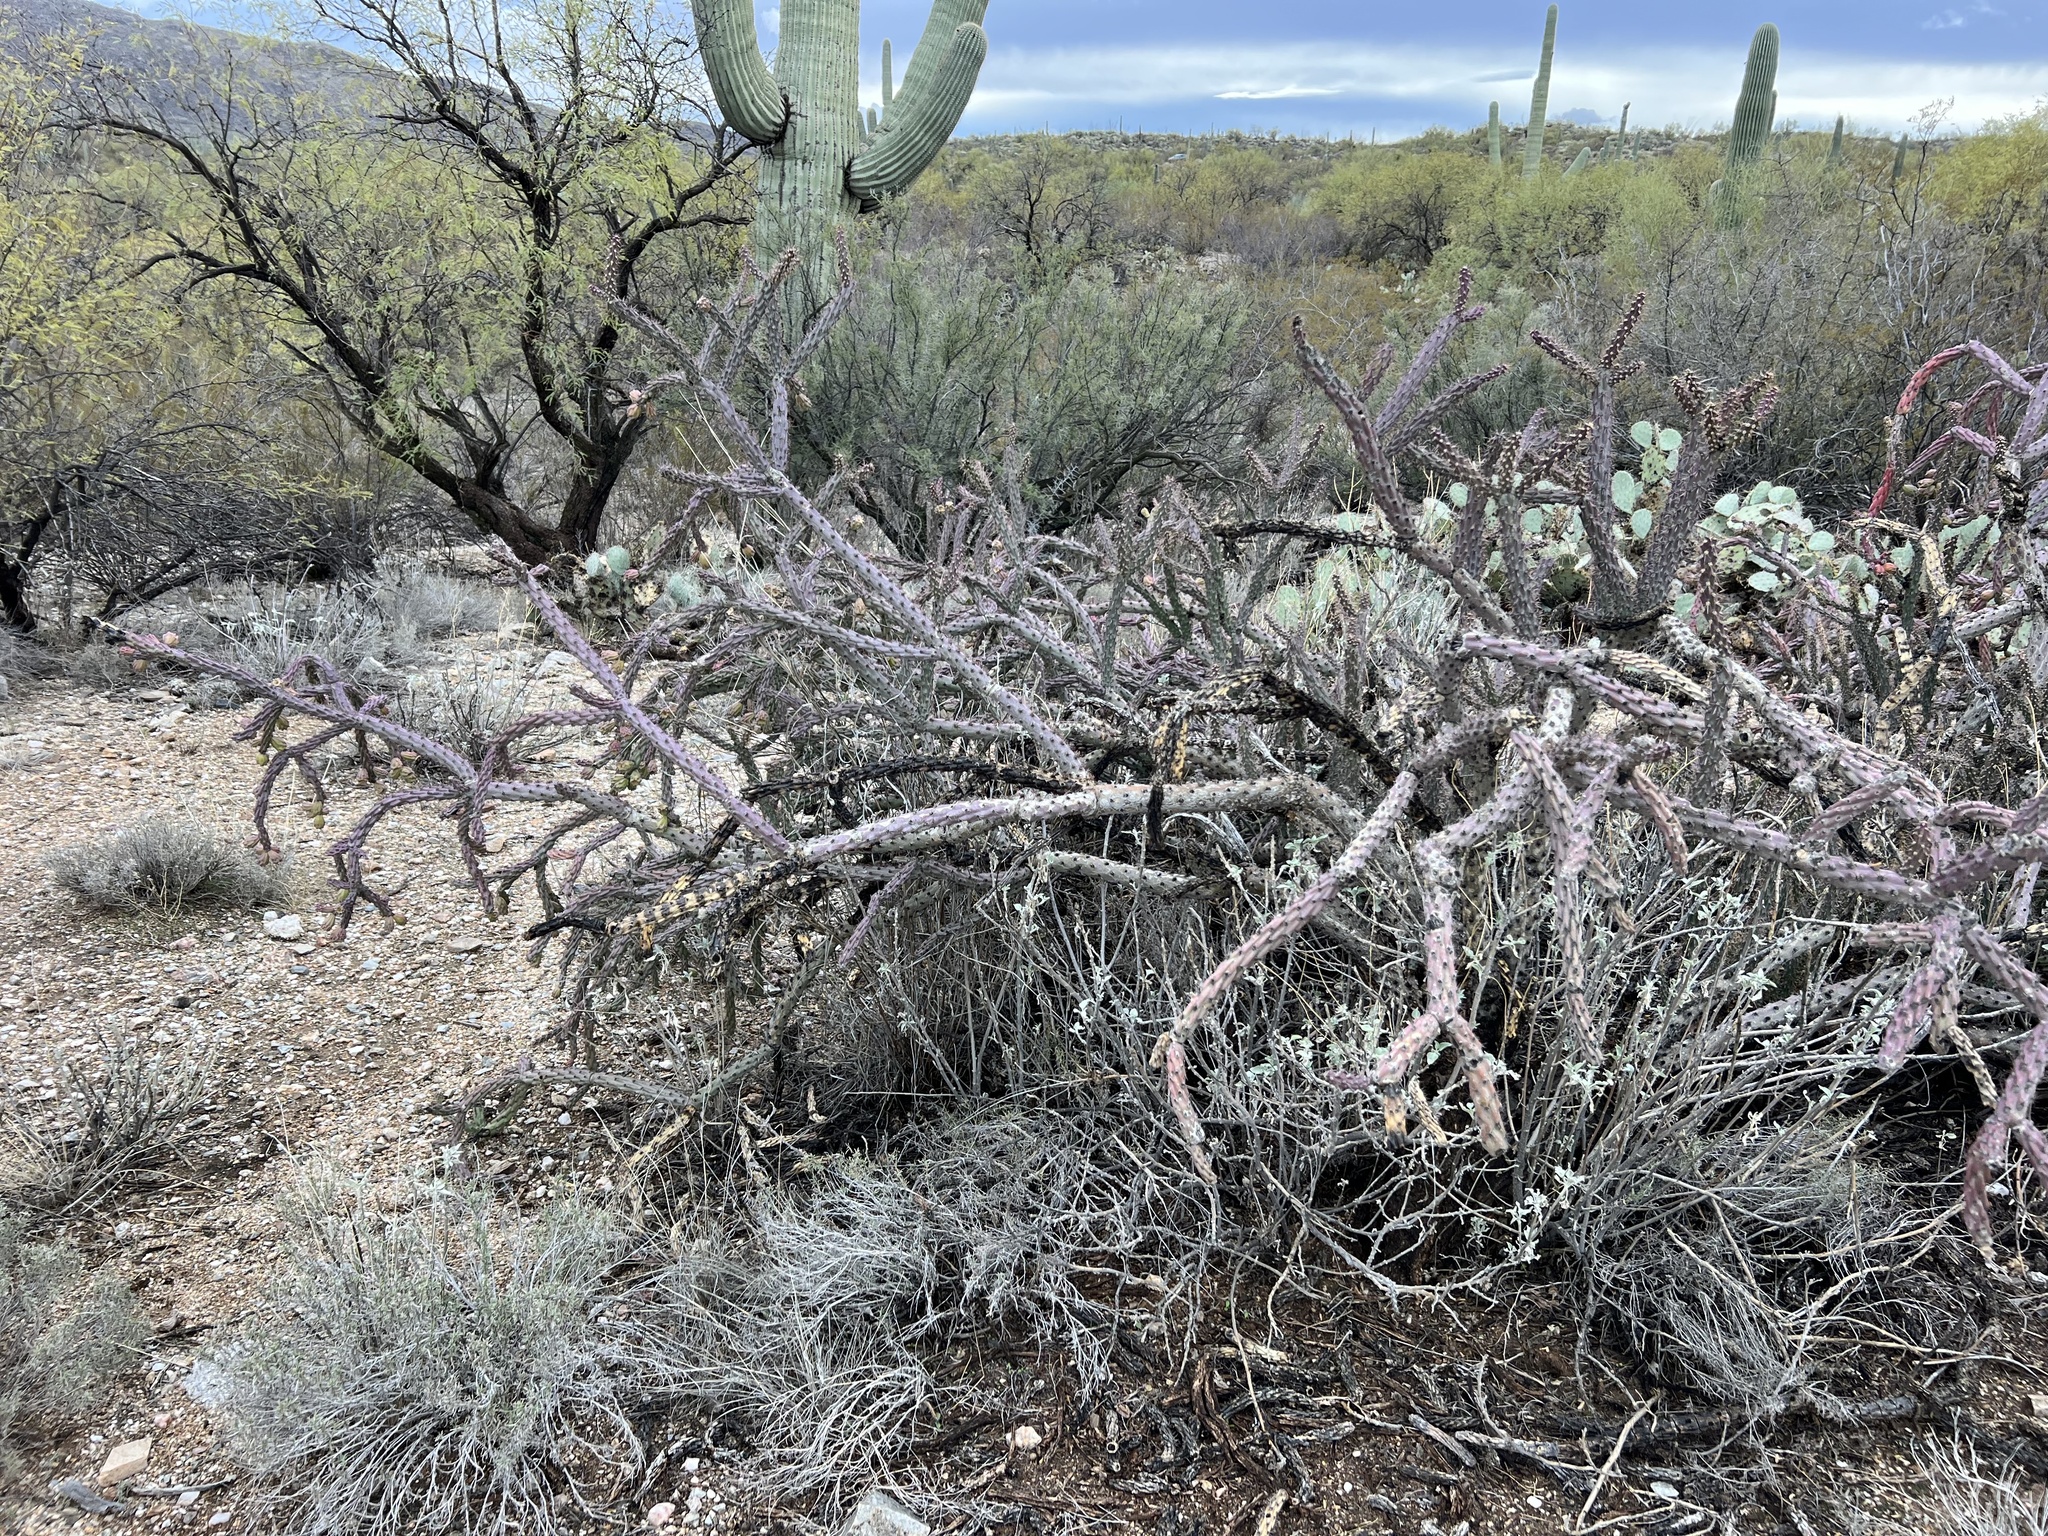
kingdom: Plantae
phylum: Tracheophyta
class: Magnoliopsida
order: Caryophyllales
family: Cactaceae
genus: Cylindropuntia
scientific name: Cylindropuntia thurberi
